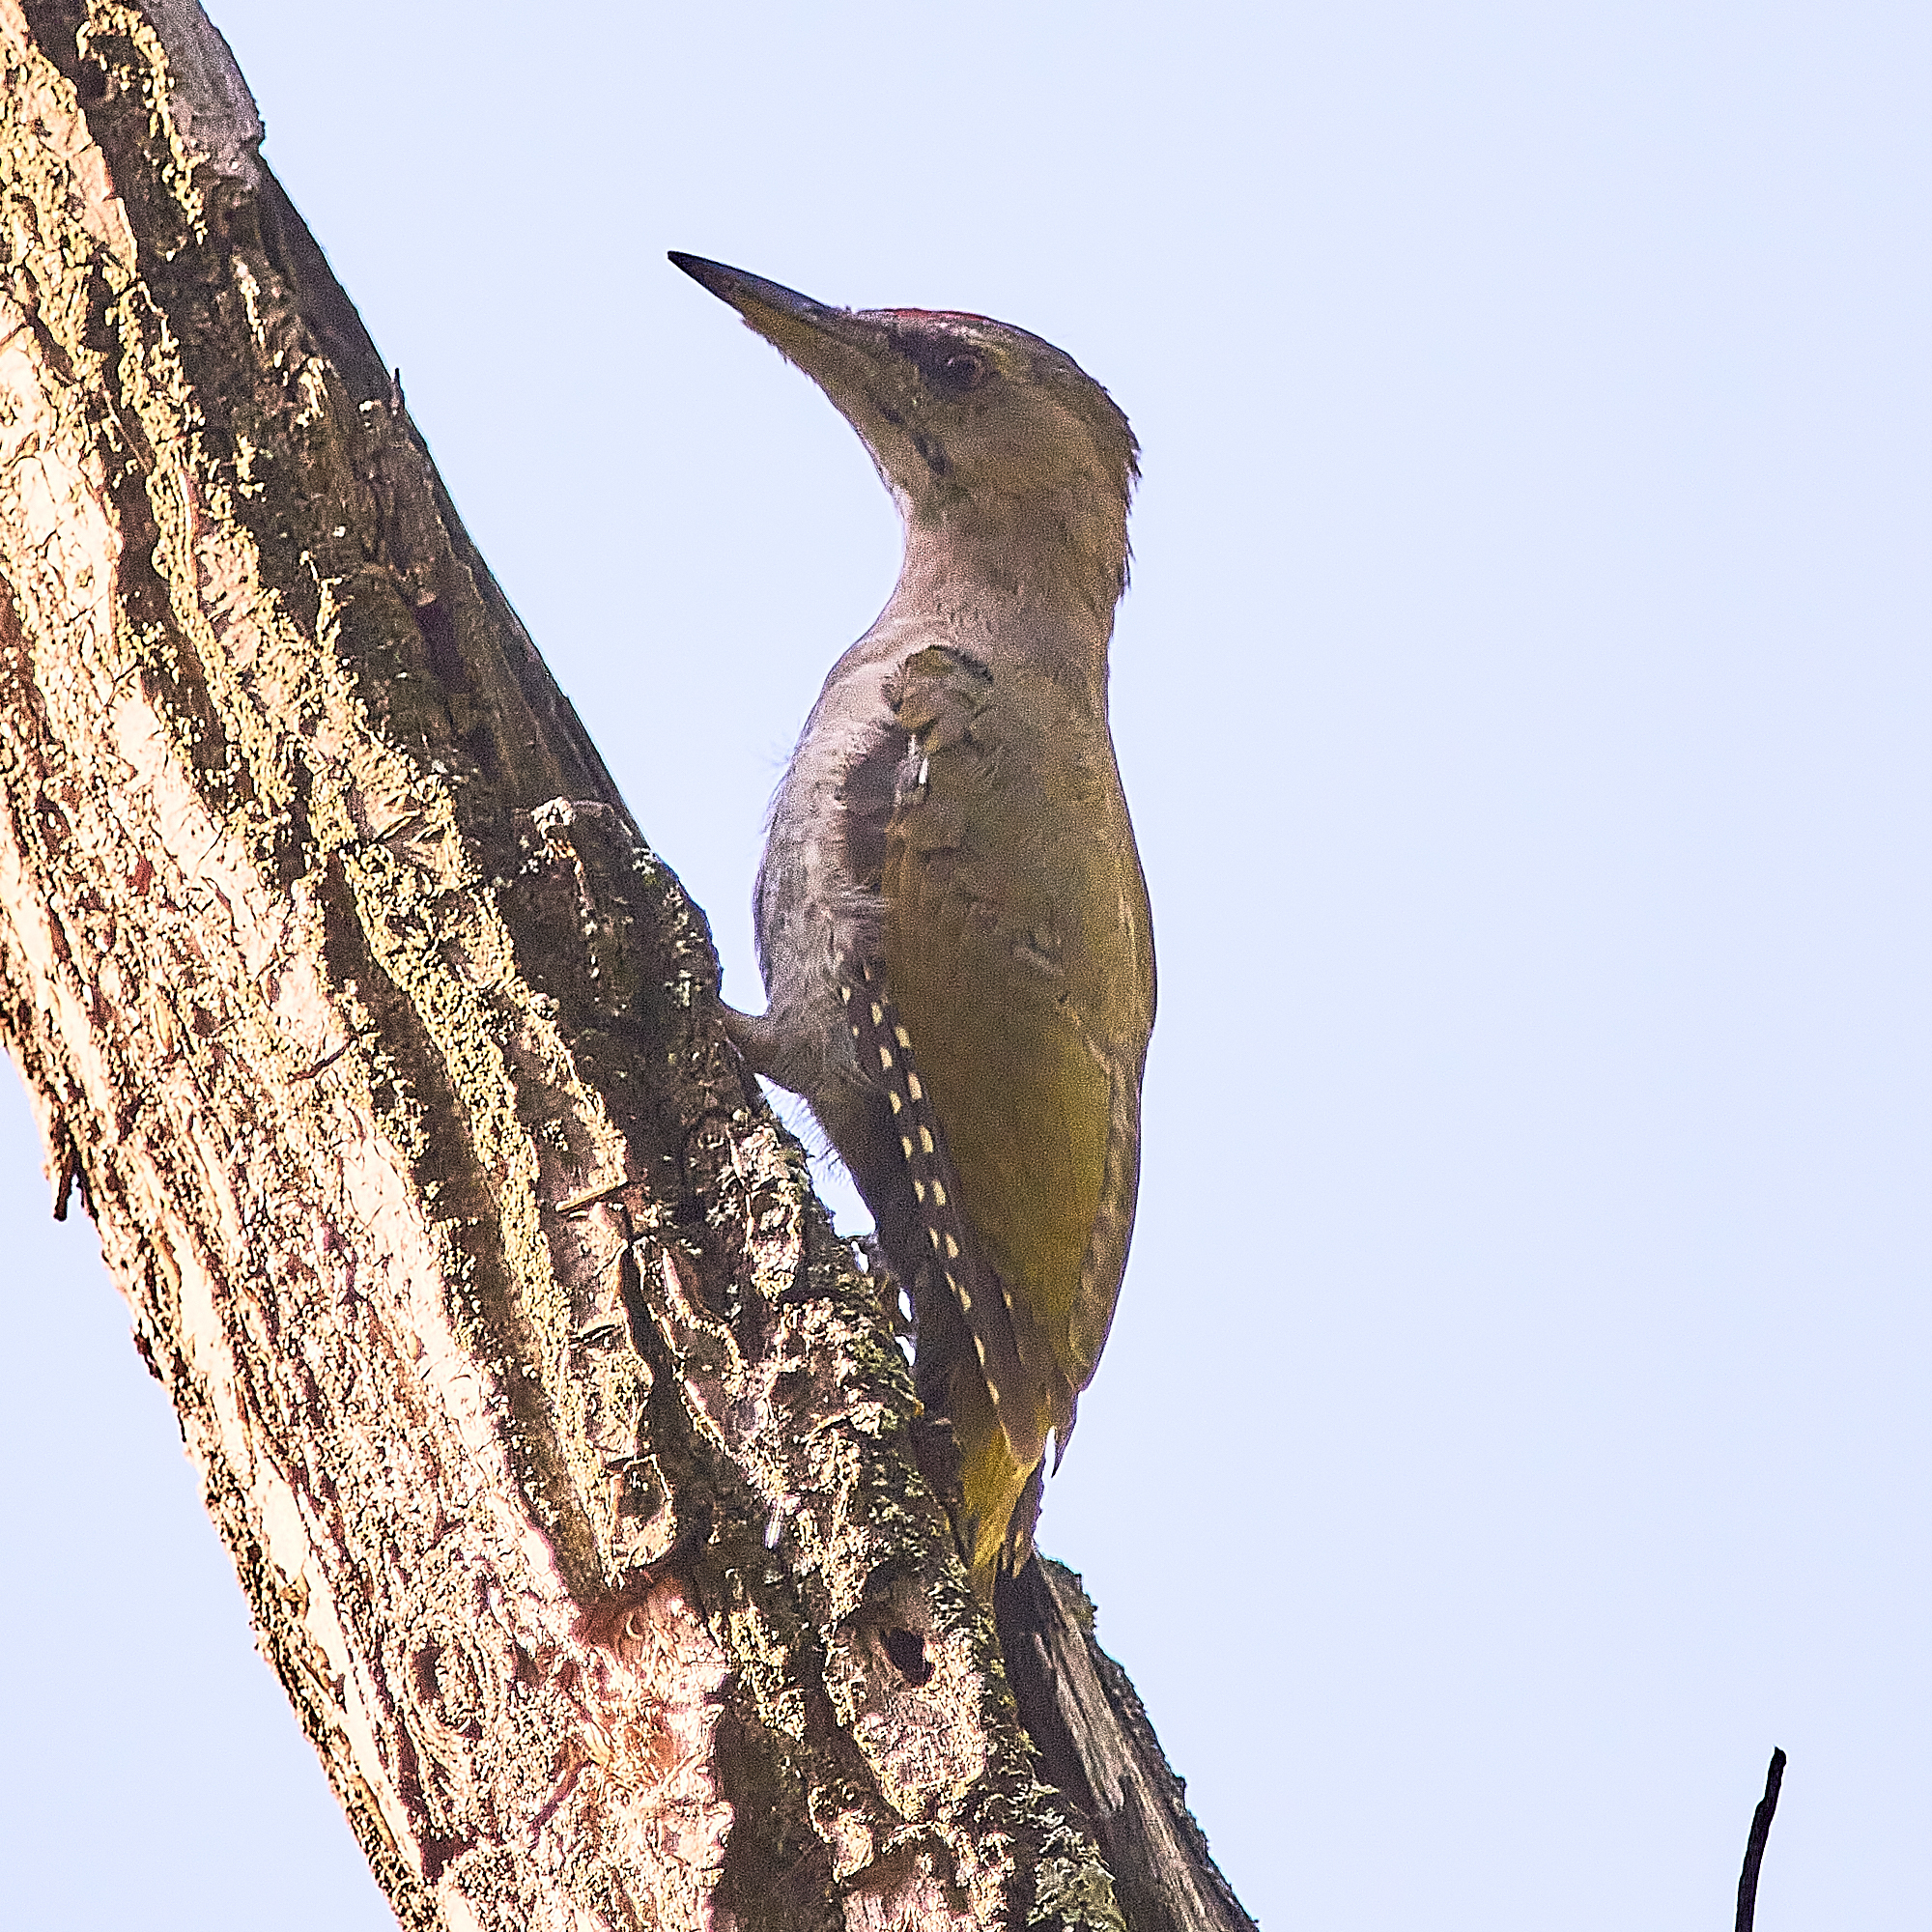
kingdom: Animalia
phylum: Chordata
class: Aves
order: Piciformes
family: Picidae
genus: Picus
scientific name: Picus canus
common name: Grey-headed woodpecker
